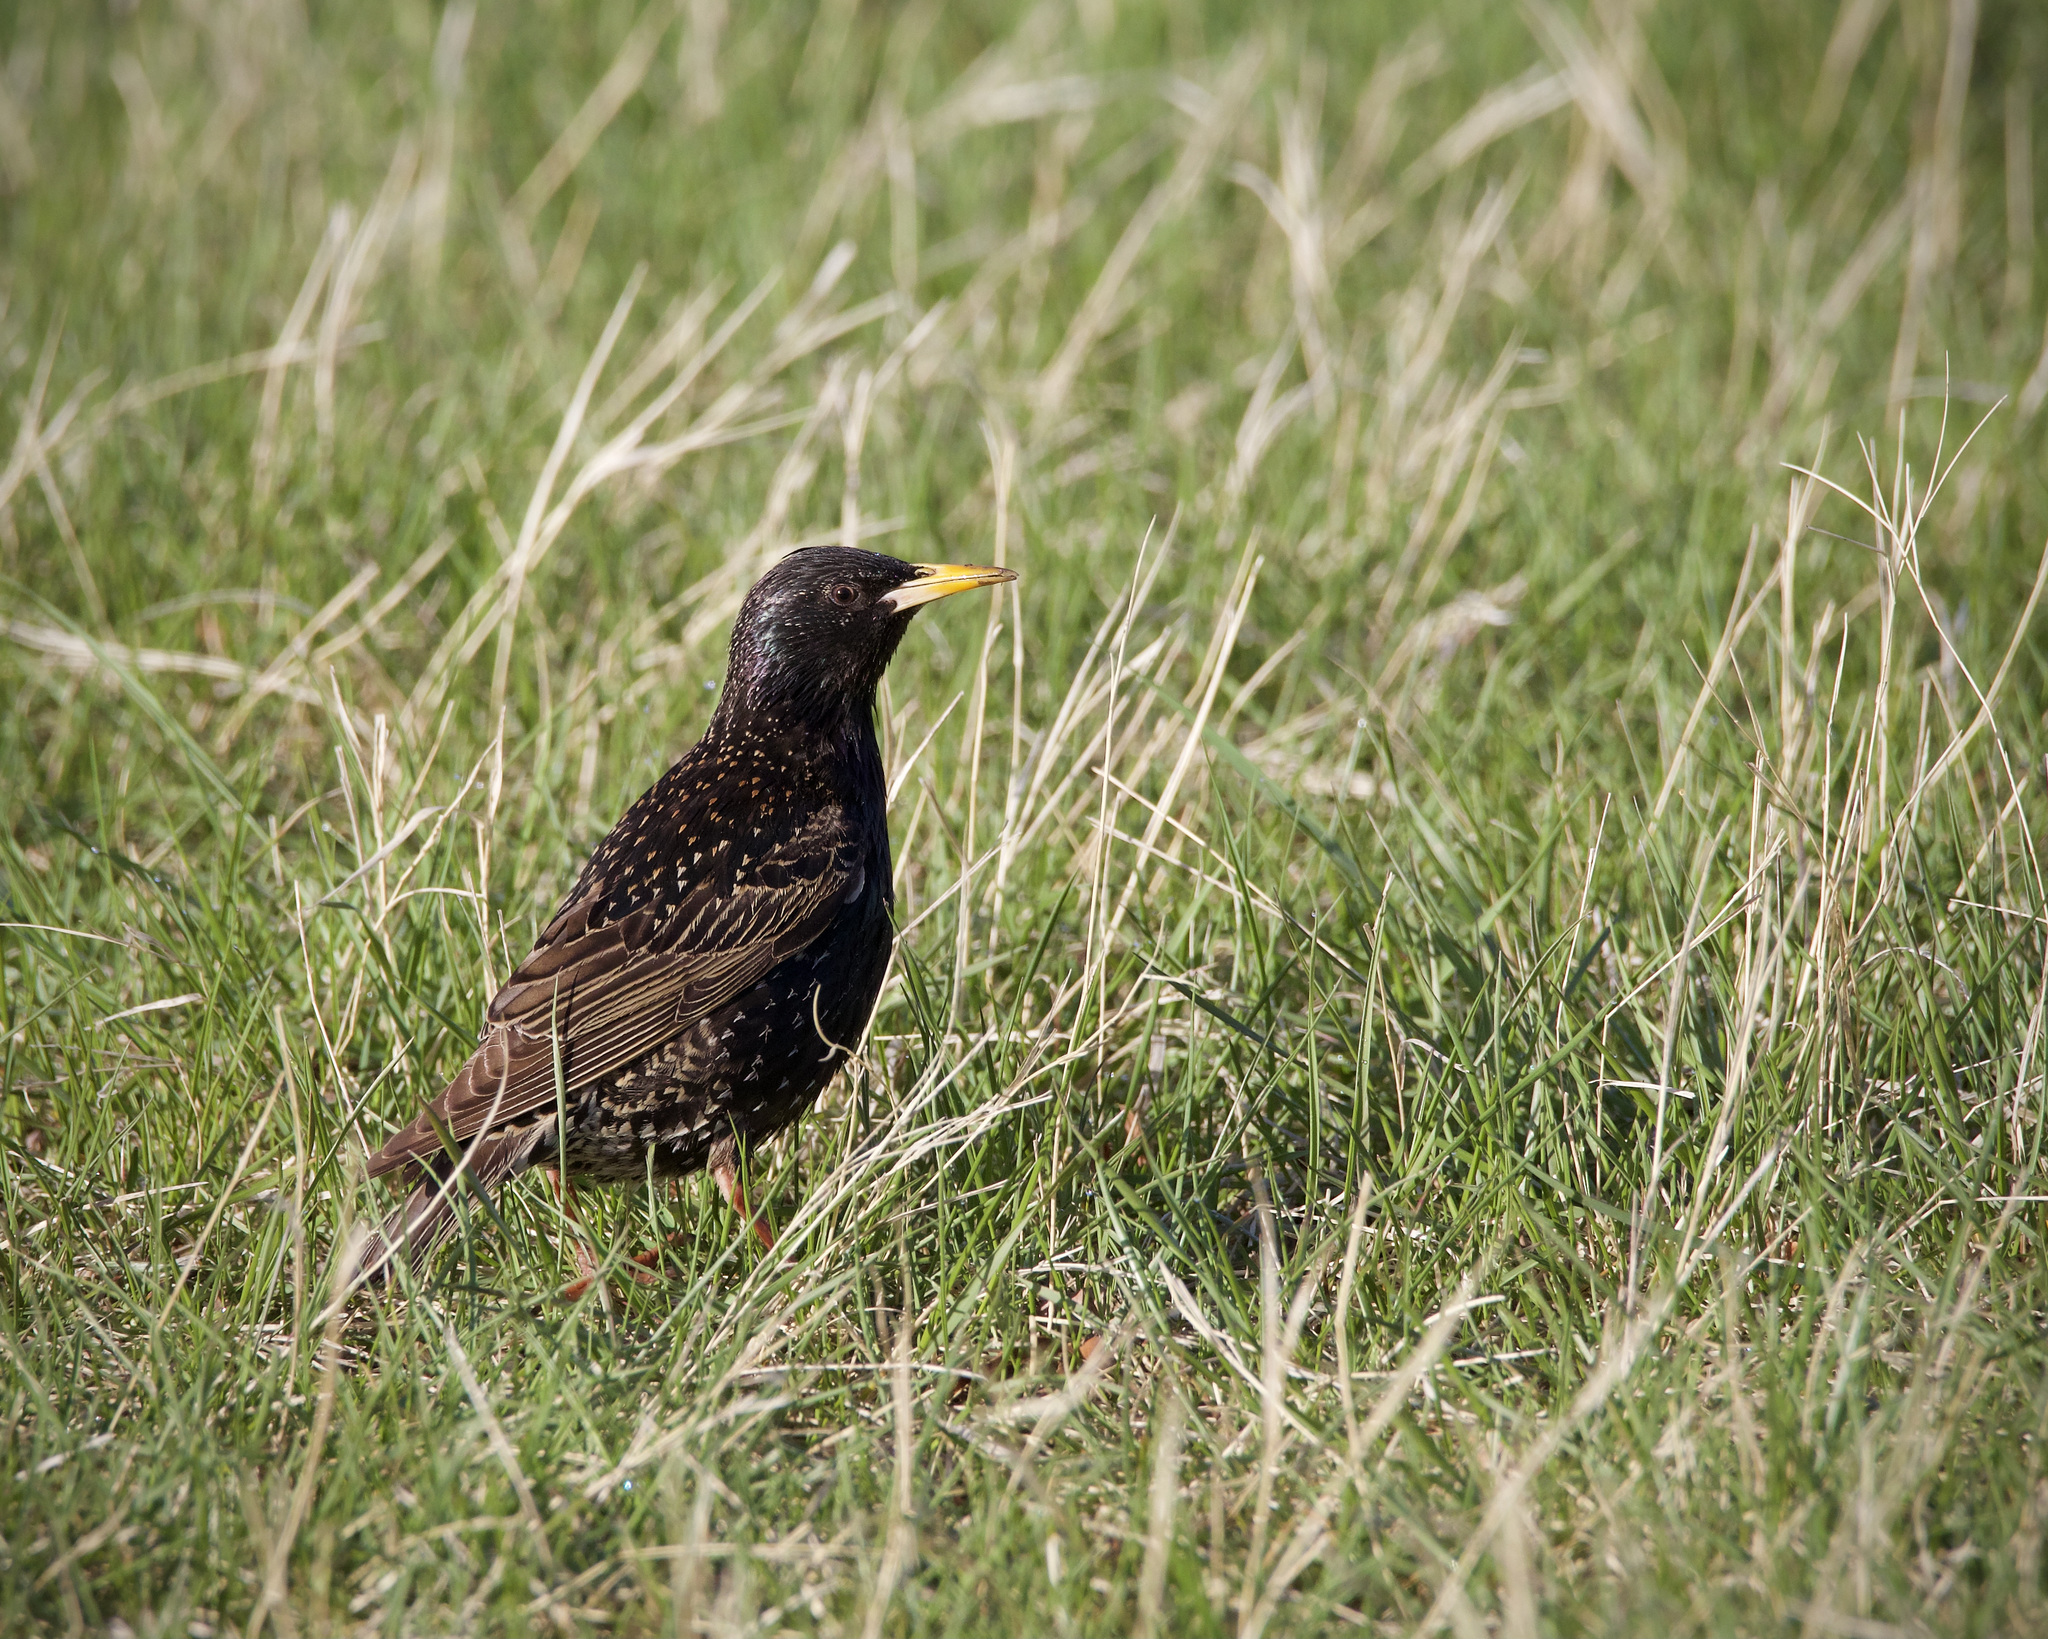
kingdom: Animalia
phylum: Chordata
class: Aves
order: Passeriformes
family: Sturnidae
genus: Sturnus
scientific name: Sturnus vulgaris
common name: Common starling
